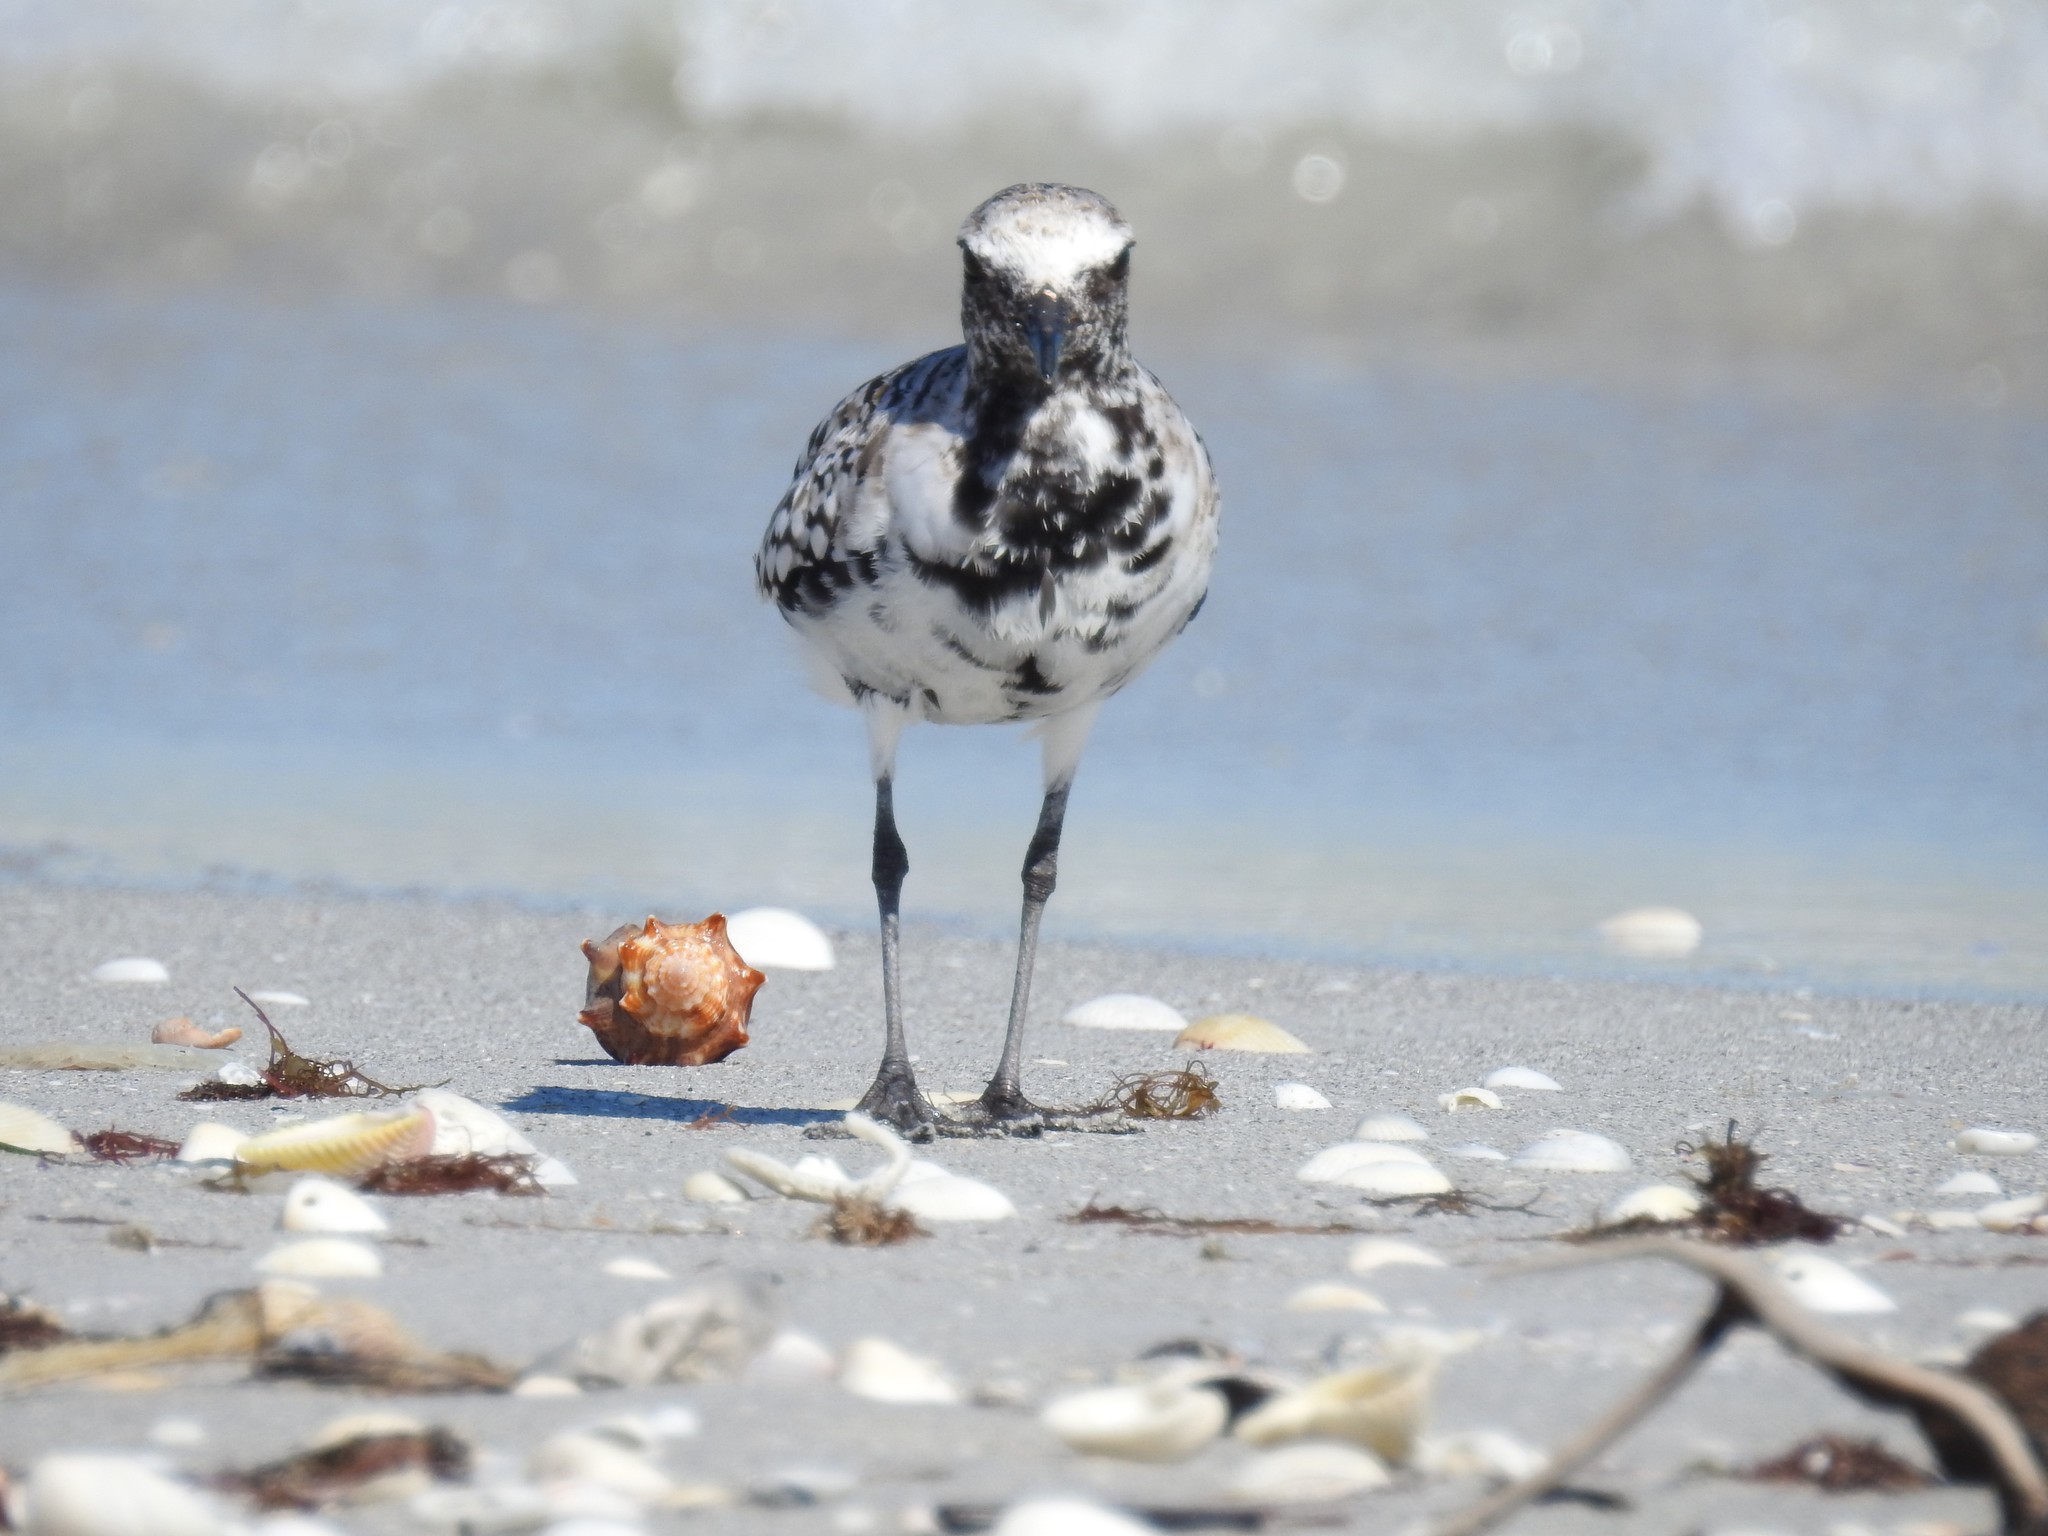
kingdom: Animalia
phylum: Chordata
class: Aves
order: Charadriiformes
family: Charadriidae
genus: Pluvialis
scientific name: Pluvialis squatarola
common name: Grey plover
